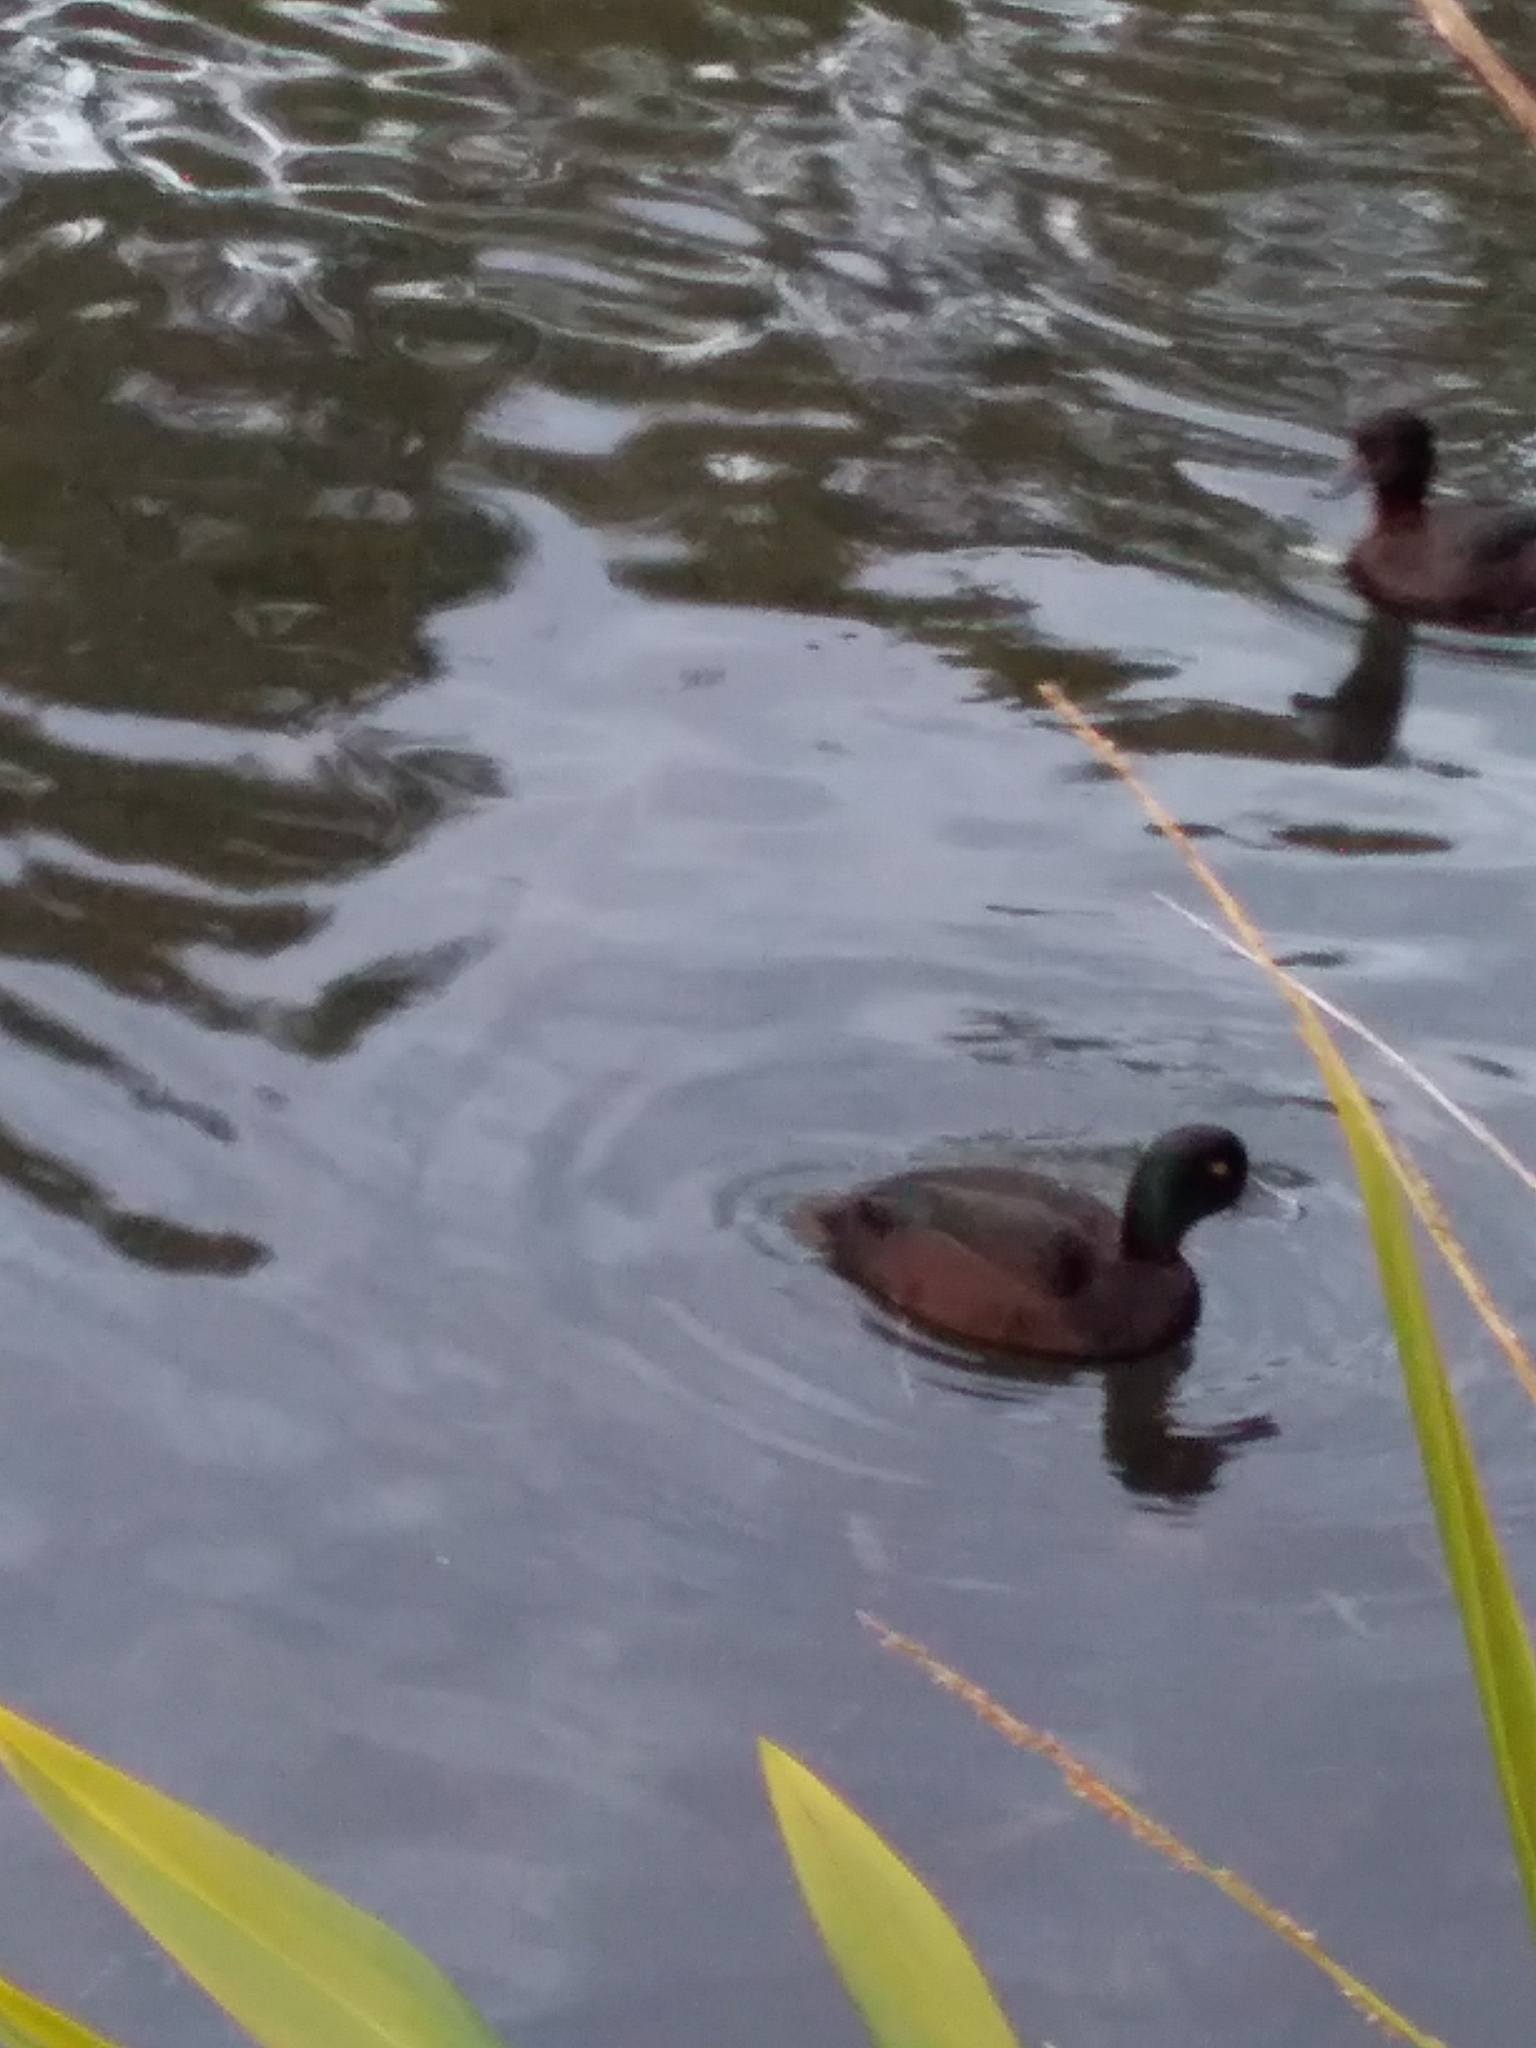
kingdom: Animalia
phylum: Chordata
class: Aves
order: Anseriformes
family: Anatidae
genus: Aythya
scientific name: Aythya novaeseelandiae
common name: New zealand scaup
